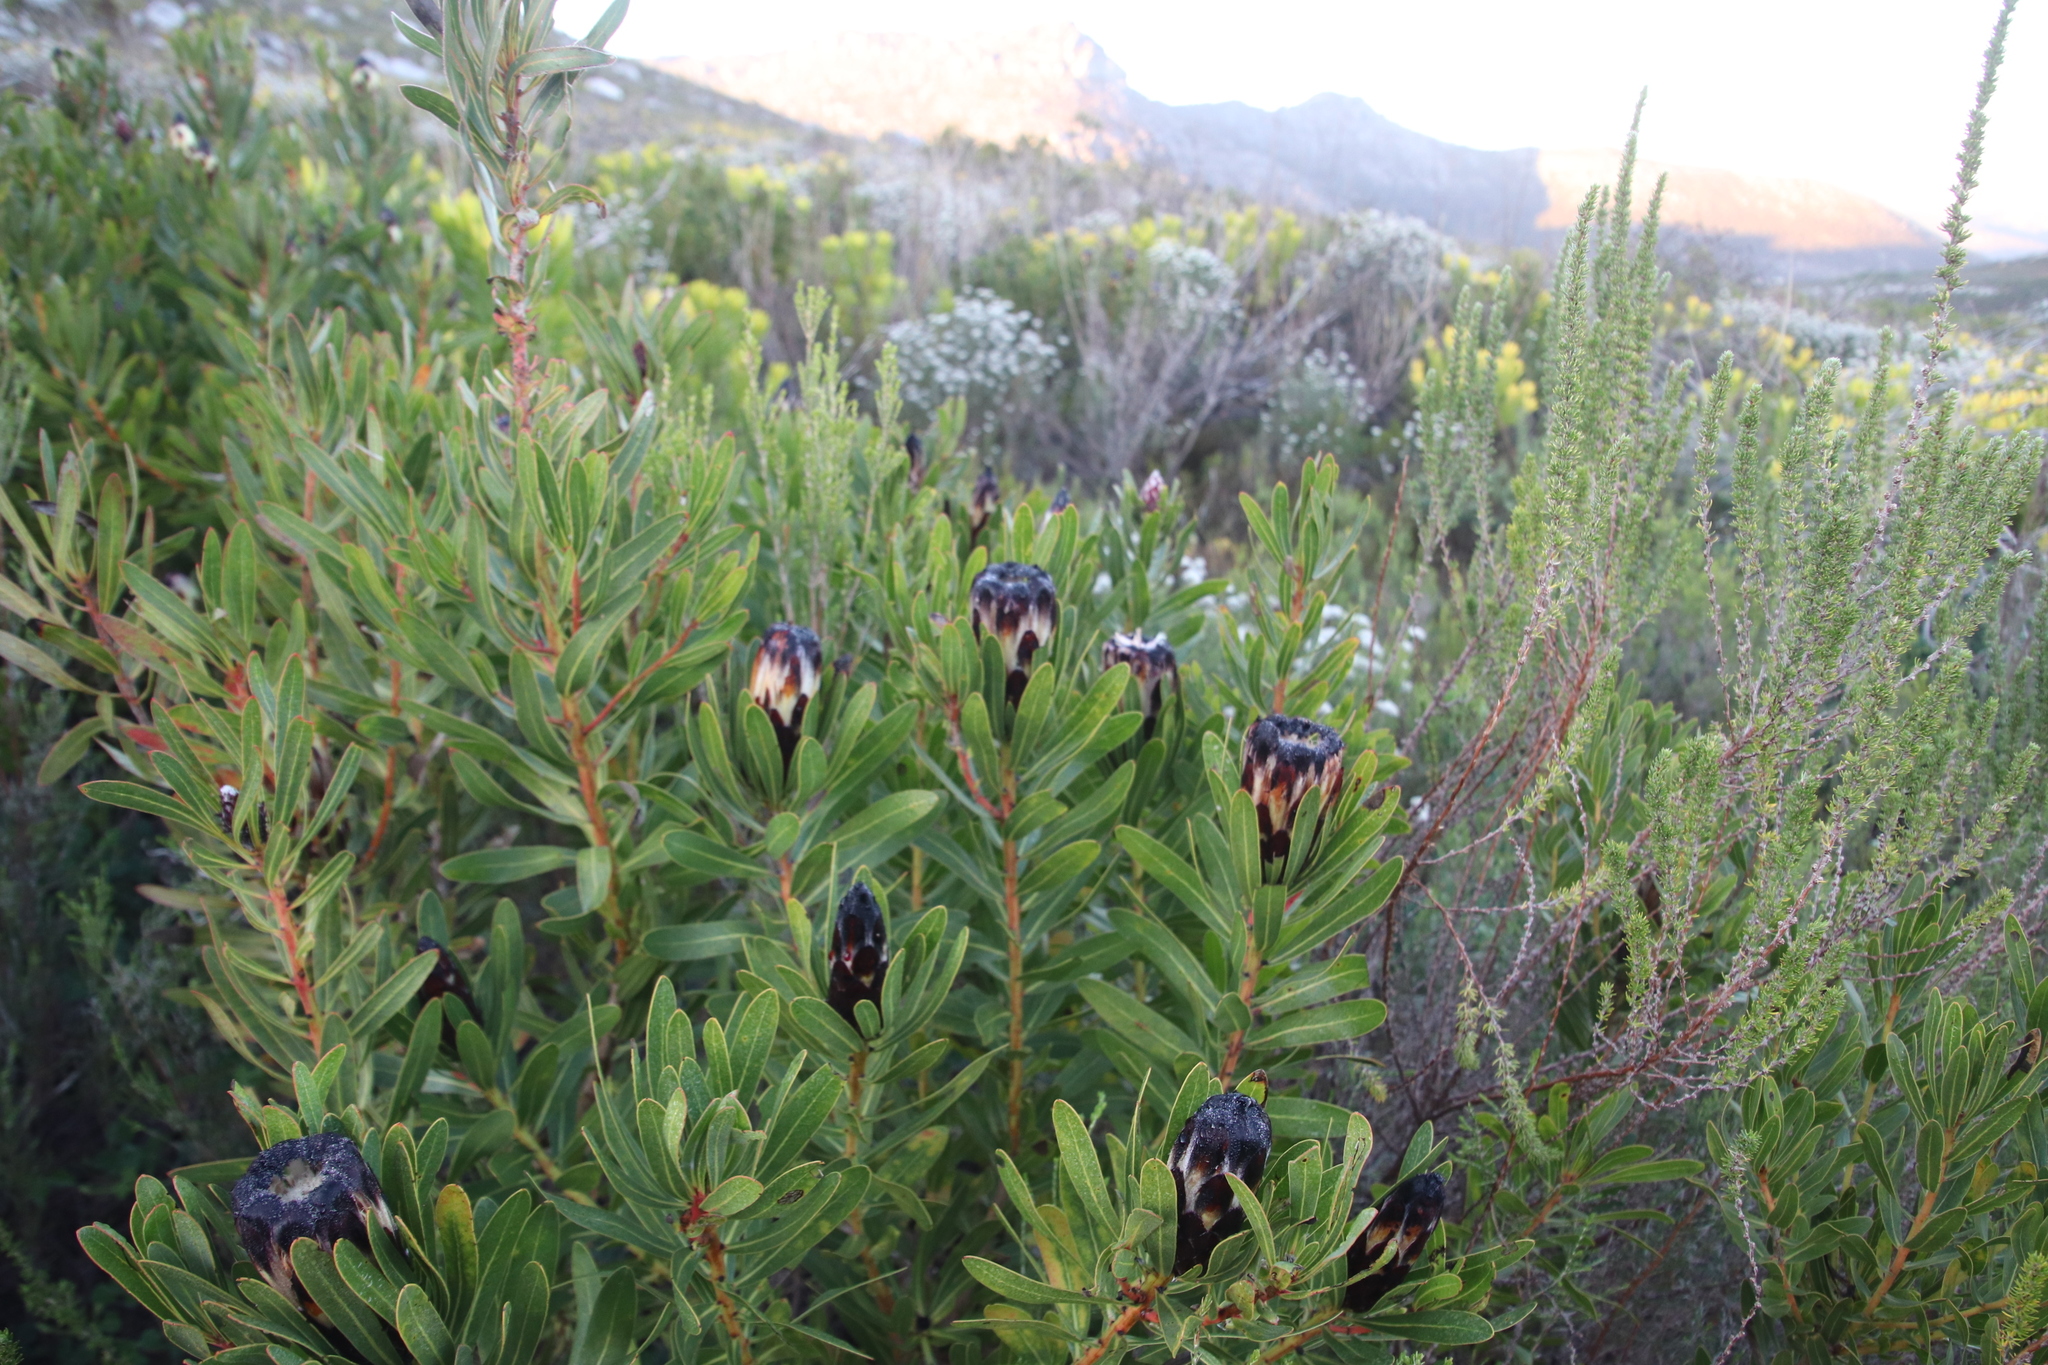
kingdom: Plantae
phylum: Tracheophyta
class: Magnoliopsida
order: Proteales
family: Proteaceae
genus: Protea
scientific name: Protea lepidocarpodendron
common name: Black-bearded protea
